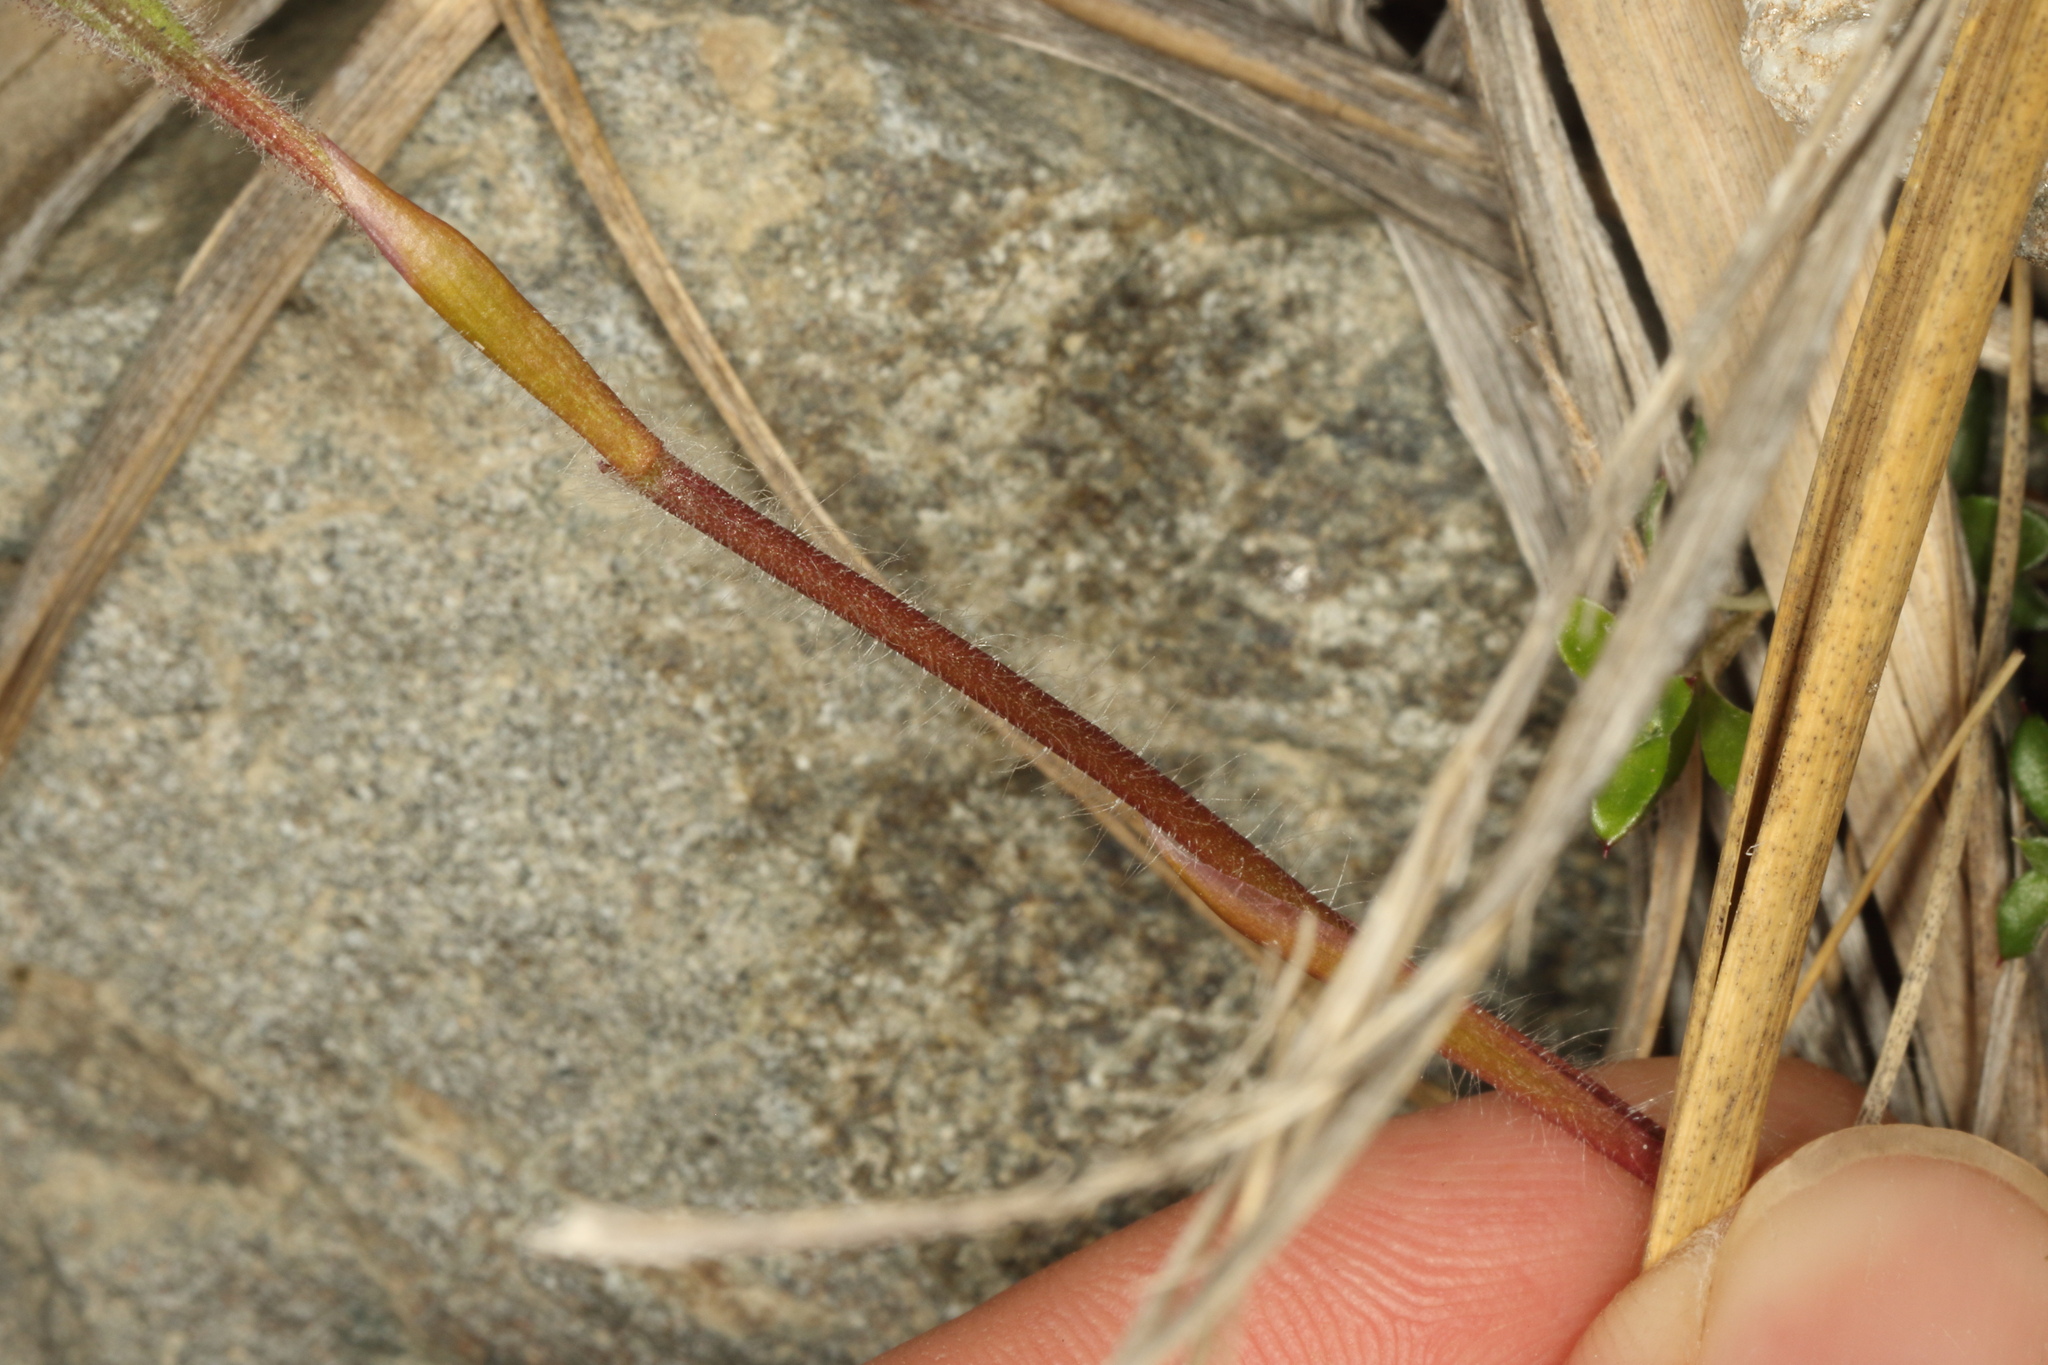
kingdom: Plantae
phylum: Tracheophyta
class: Liliopsida
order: Asparagales
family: Orchidaceae
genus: Caladenia
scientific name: Caladenia lyallii
